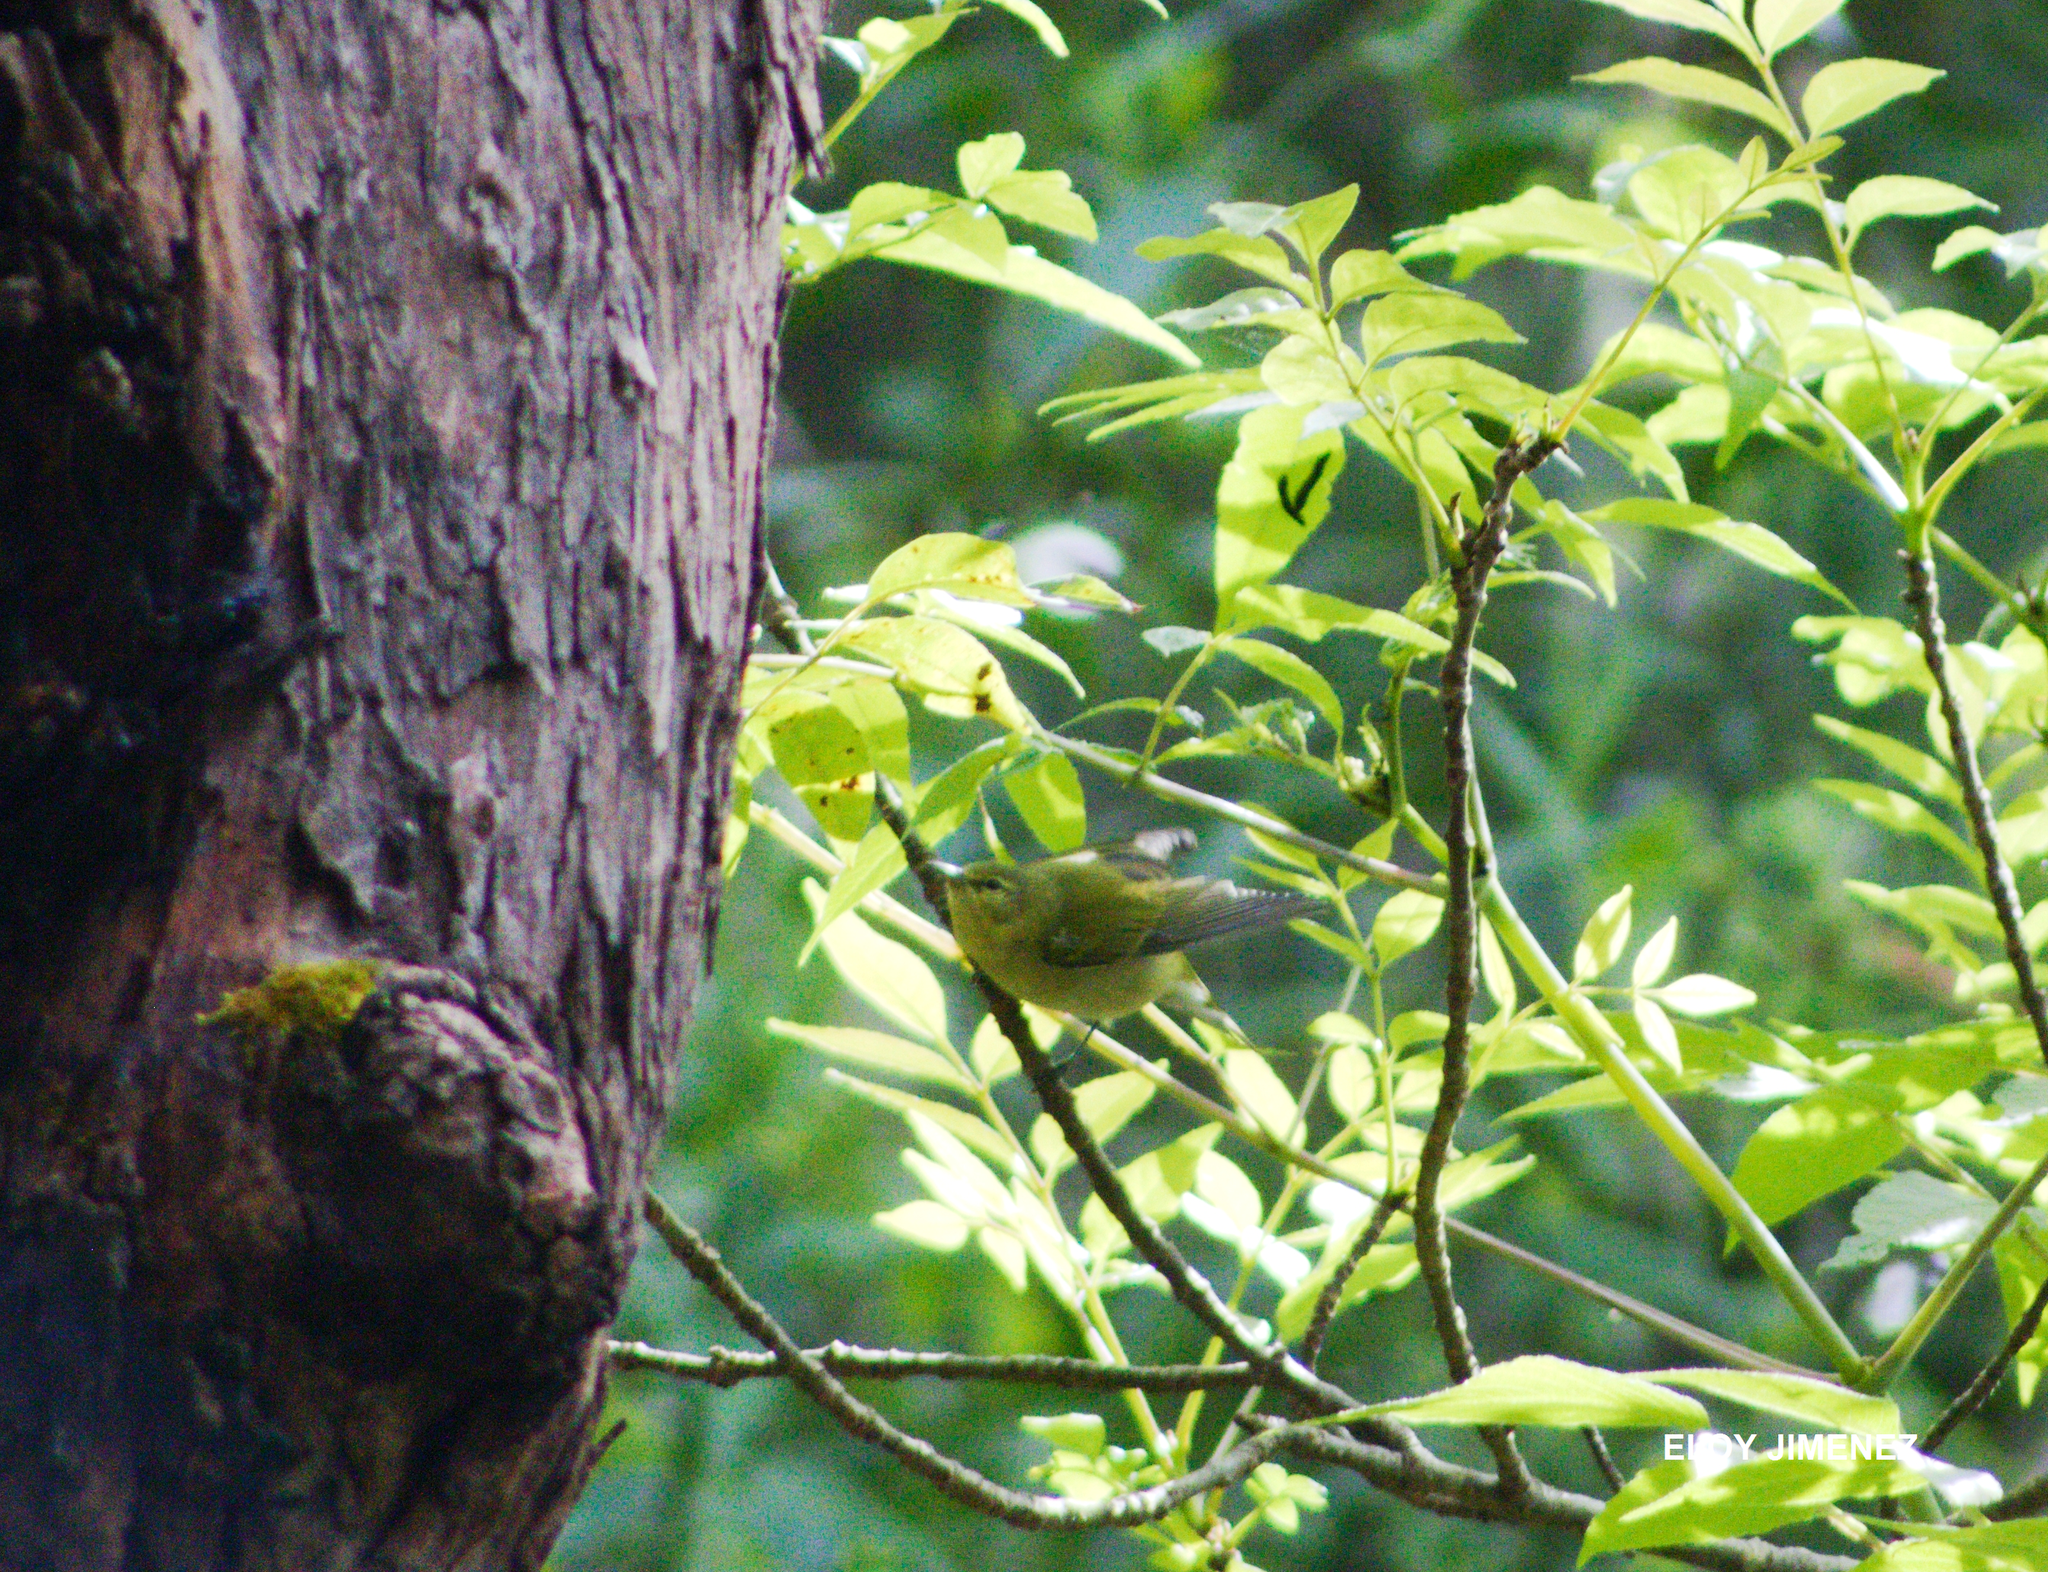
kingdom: Animalia
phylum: Chordata
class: Aves
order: Passeriformes
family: Parulidae
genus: Leiothlypis
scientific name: Leiothlypis peregrina
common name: Tennessee warbler
